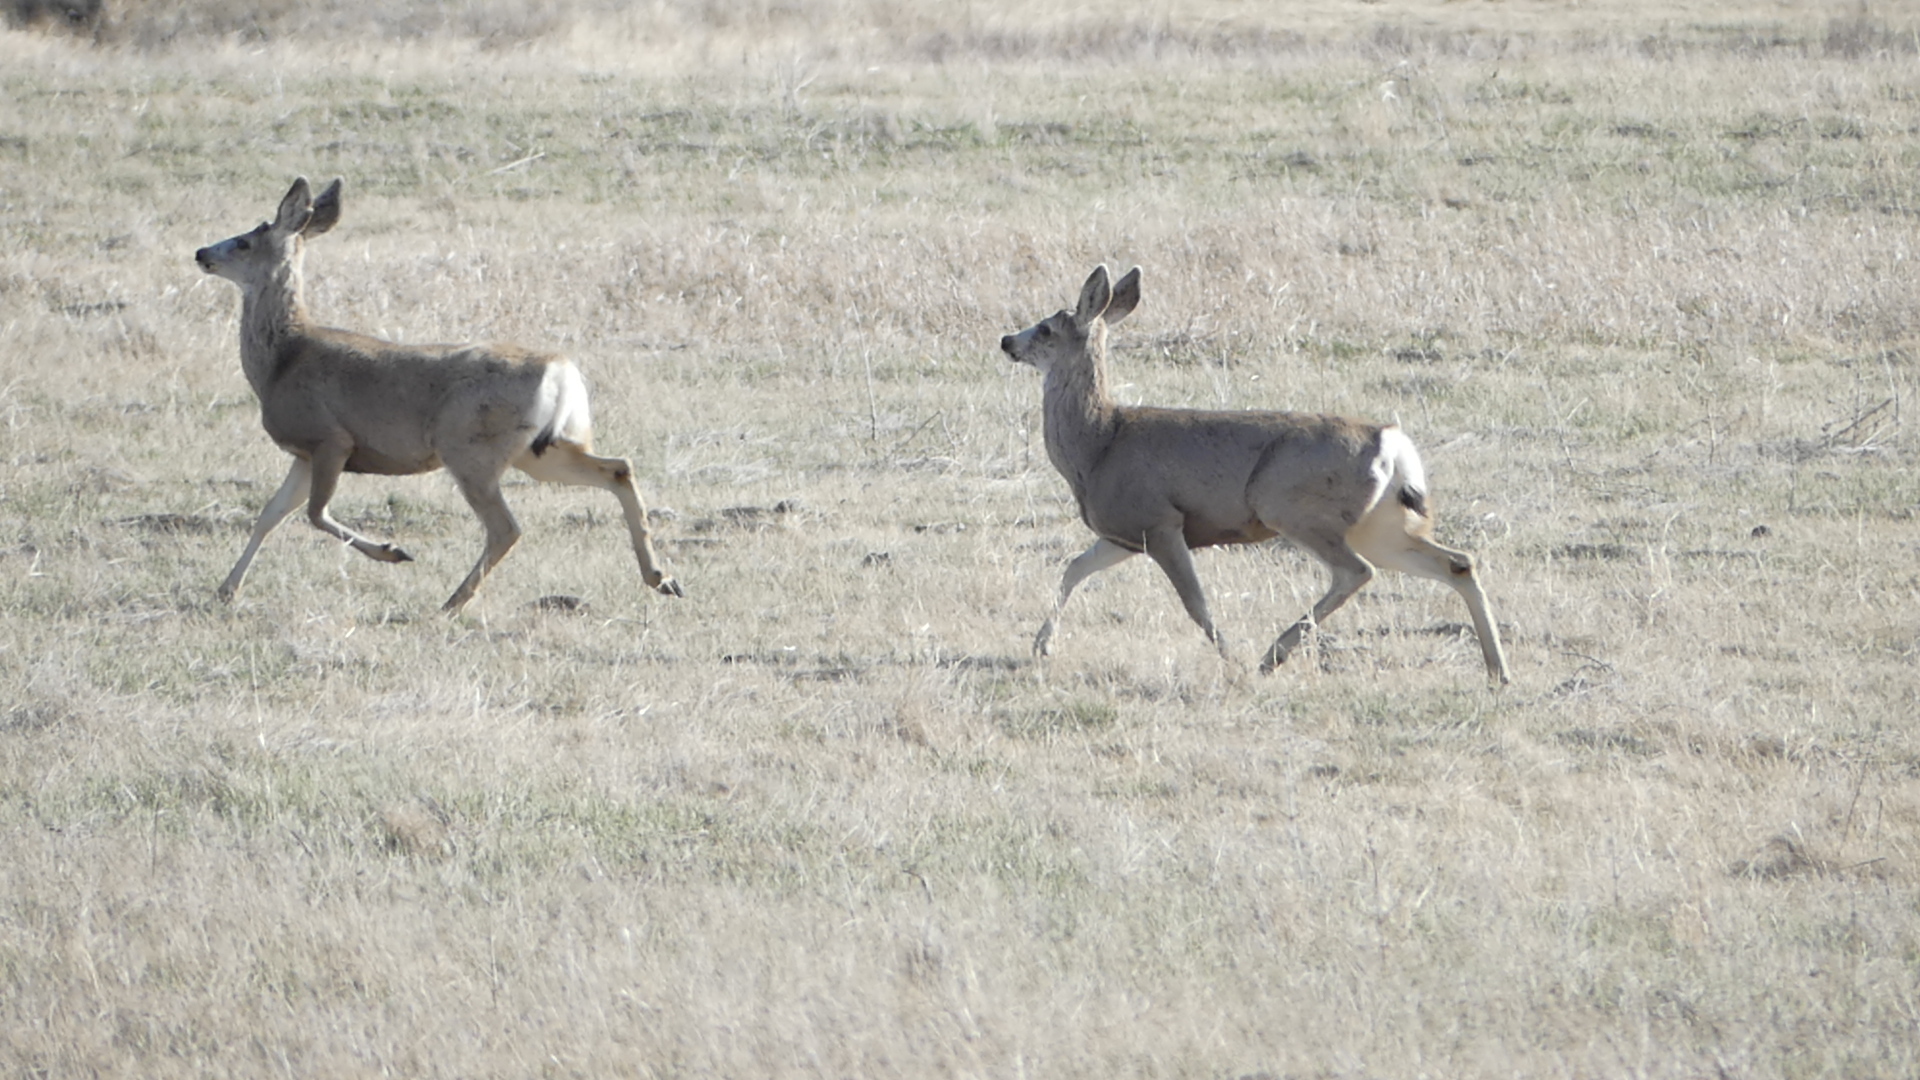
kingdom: Animalia
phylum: Chordata
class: Mammalia
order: Artiodactyla
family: Cervidae
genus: Odocoileus
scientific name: Odocoileus hemionus
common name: Mule deer
